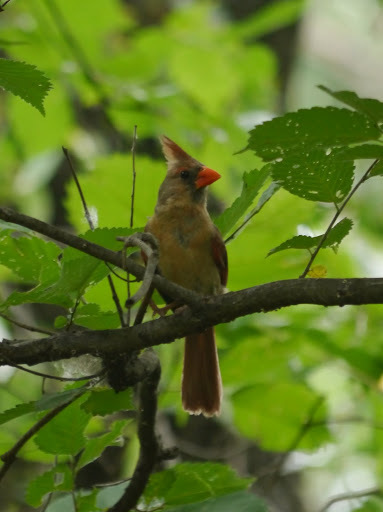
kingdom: Animalia
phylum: Chordata
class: Aves
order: Passeriformes
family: Cardinalidae
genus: Cardinalis
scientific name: Cardinalis cardinalis
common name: Northern cardinal
